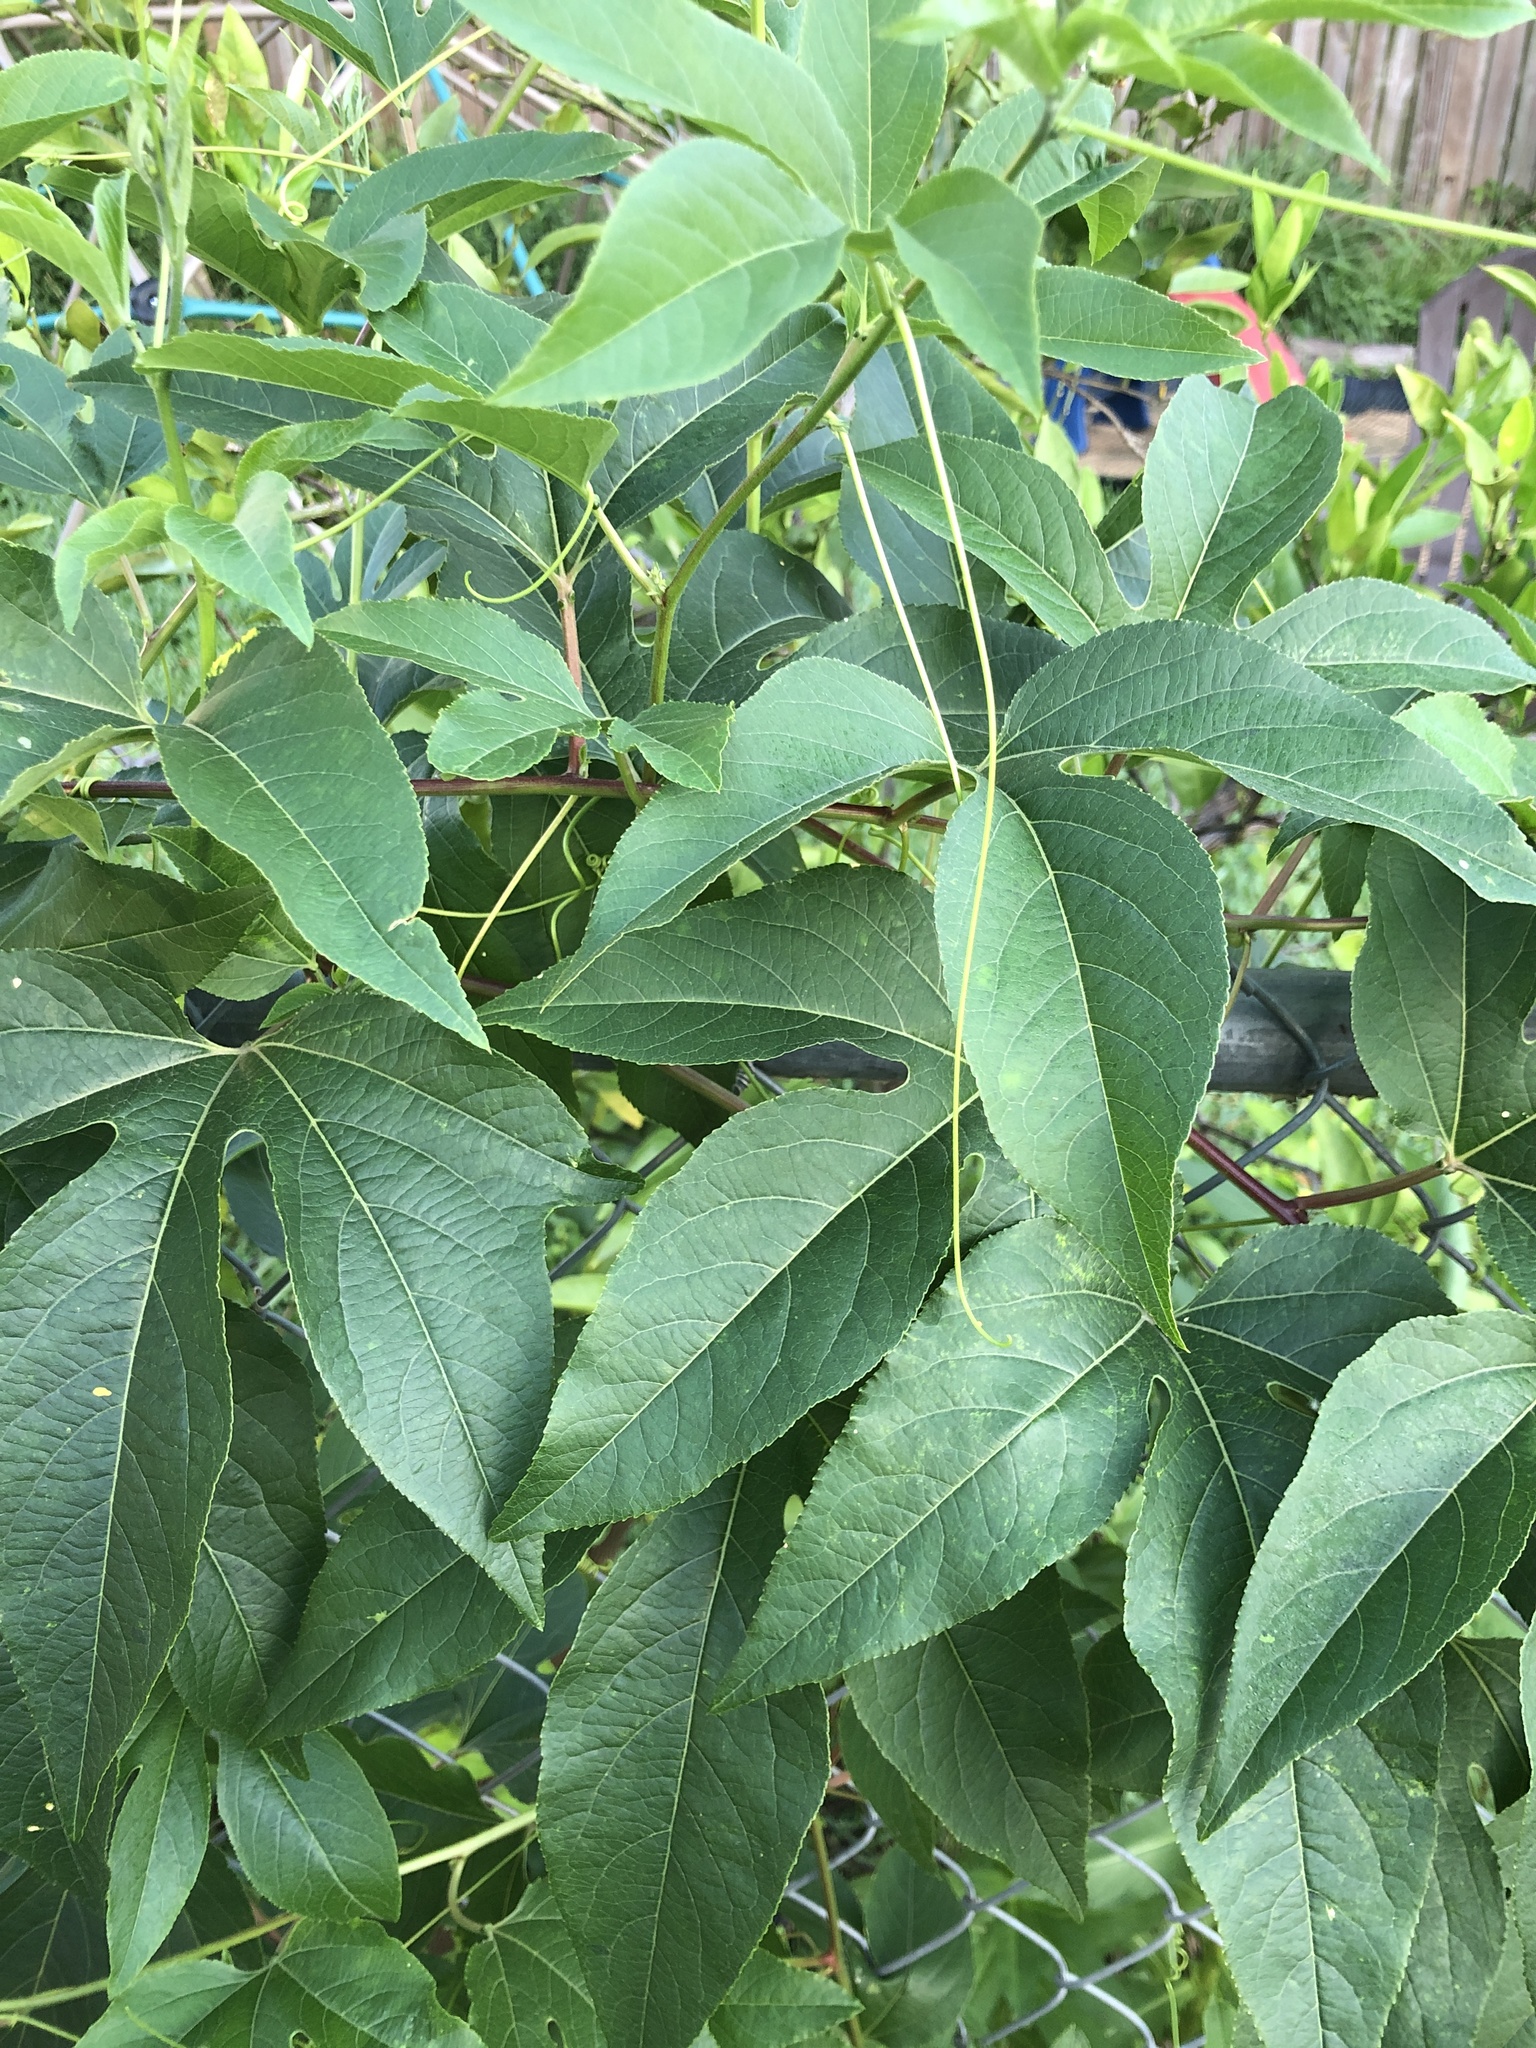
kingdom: Plantae
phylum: Tracheophyta
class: Magnoliopsida
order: Malpighiales
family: Passifloraceae
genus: Passiflora
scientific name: Passiflora incarnata
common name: Apricot-vine
